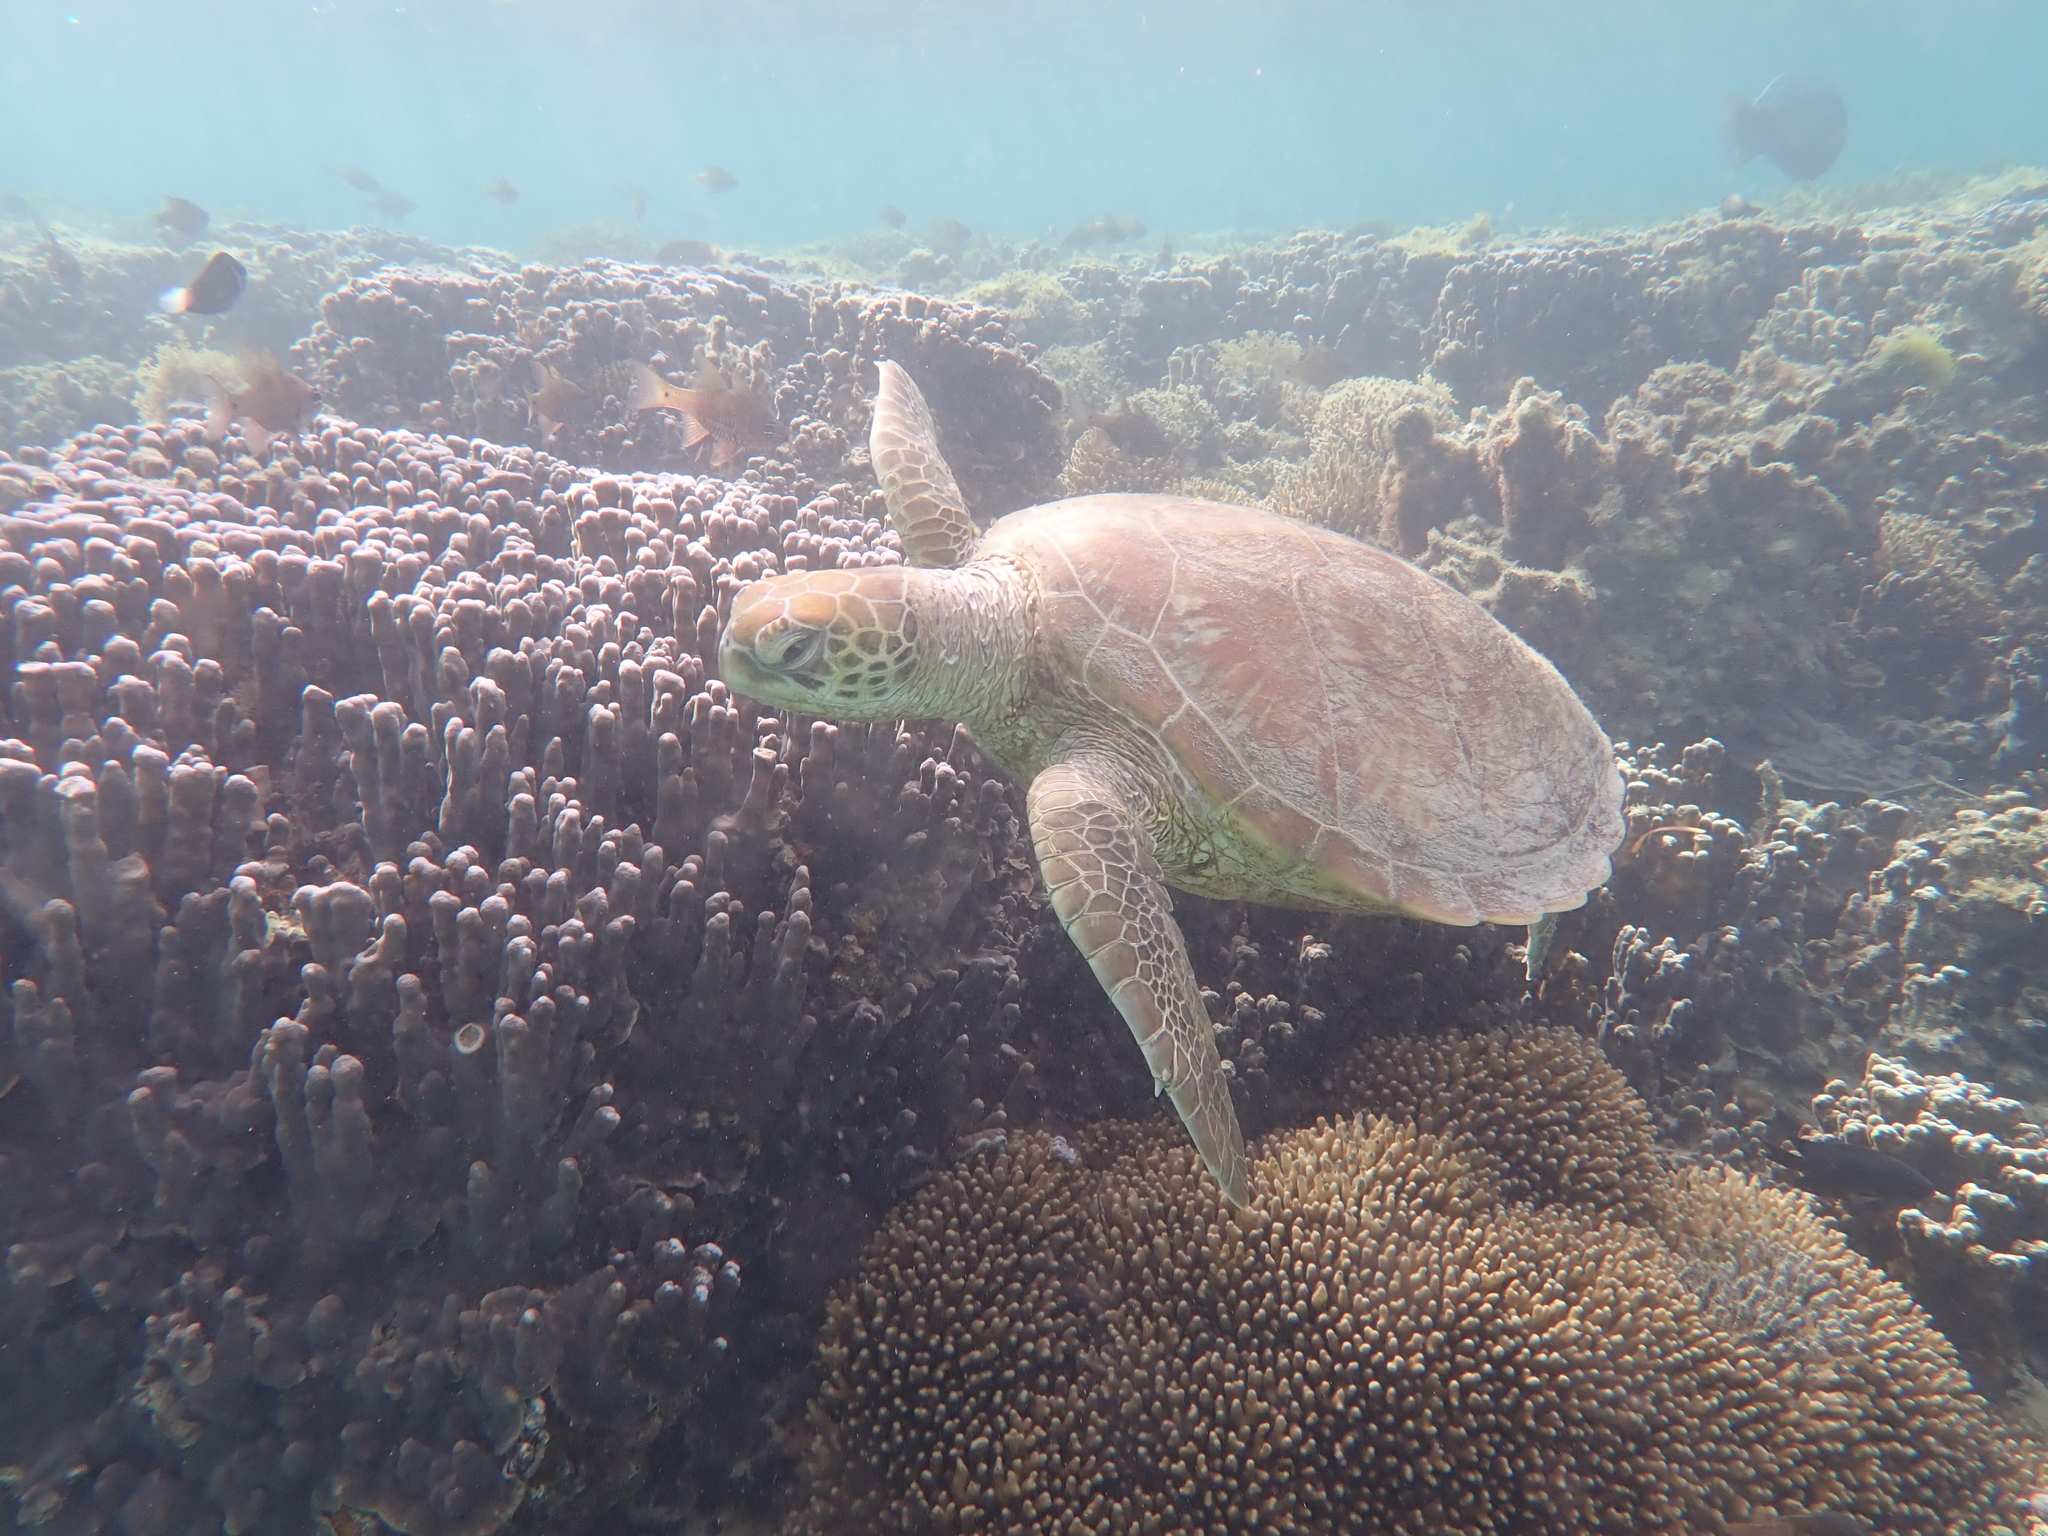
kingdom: Animalia
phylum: Chordata
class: Testudines
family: Cheloniidae
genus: Chelonia
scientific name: Chelonia mydas
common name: Green turtle
